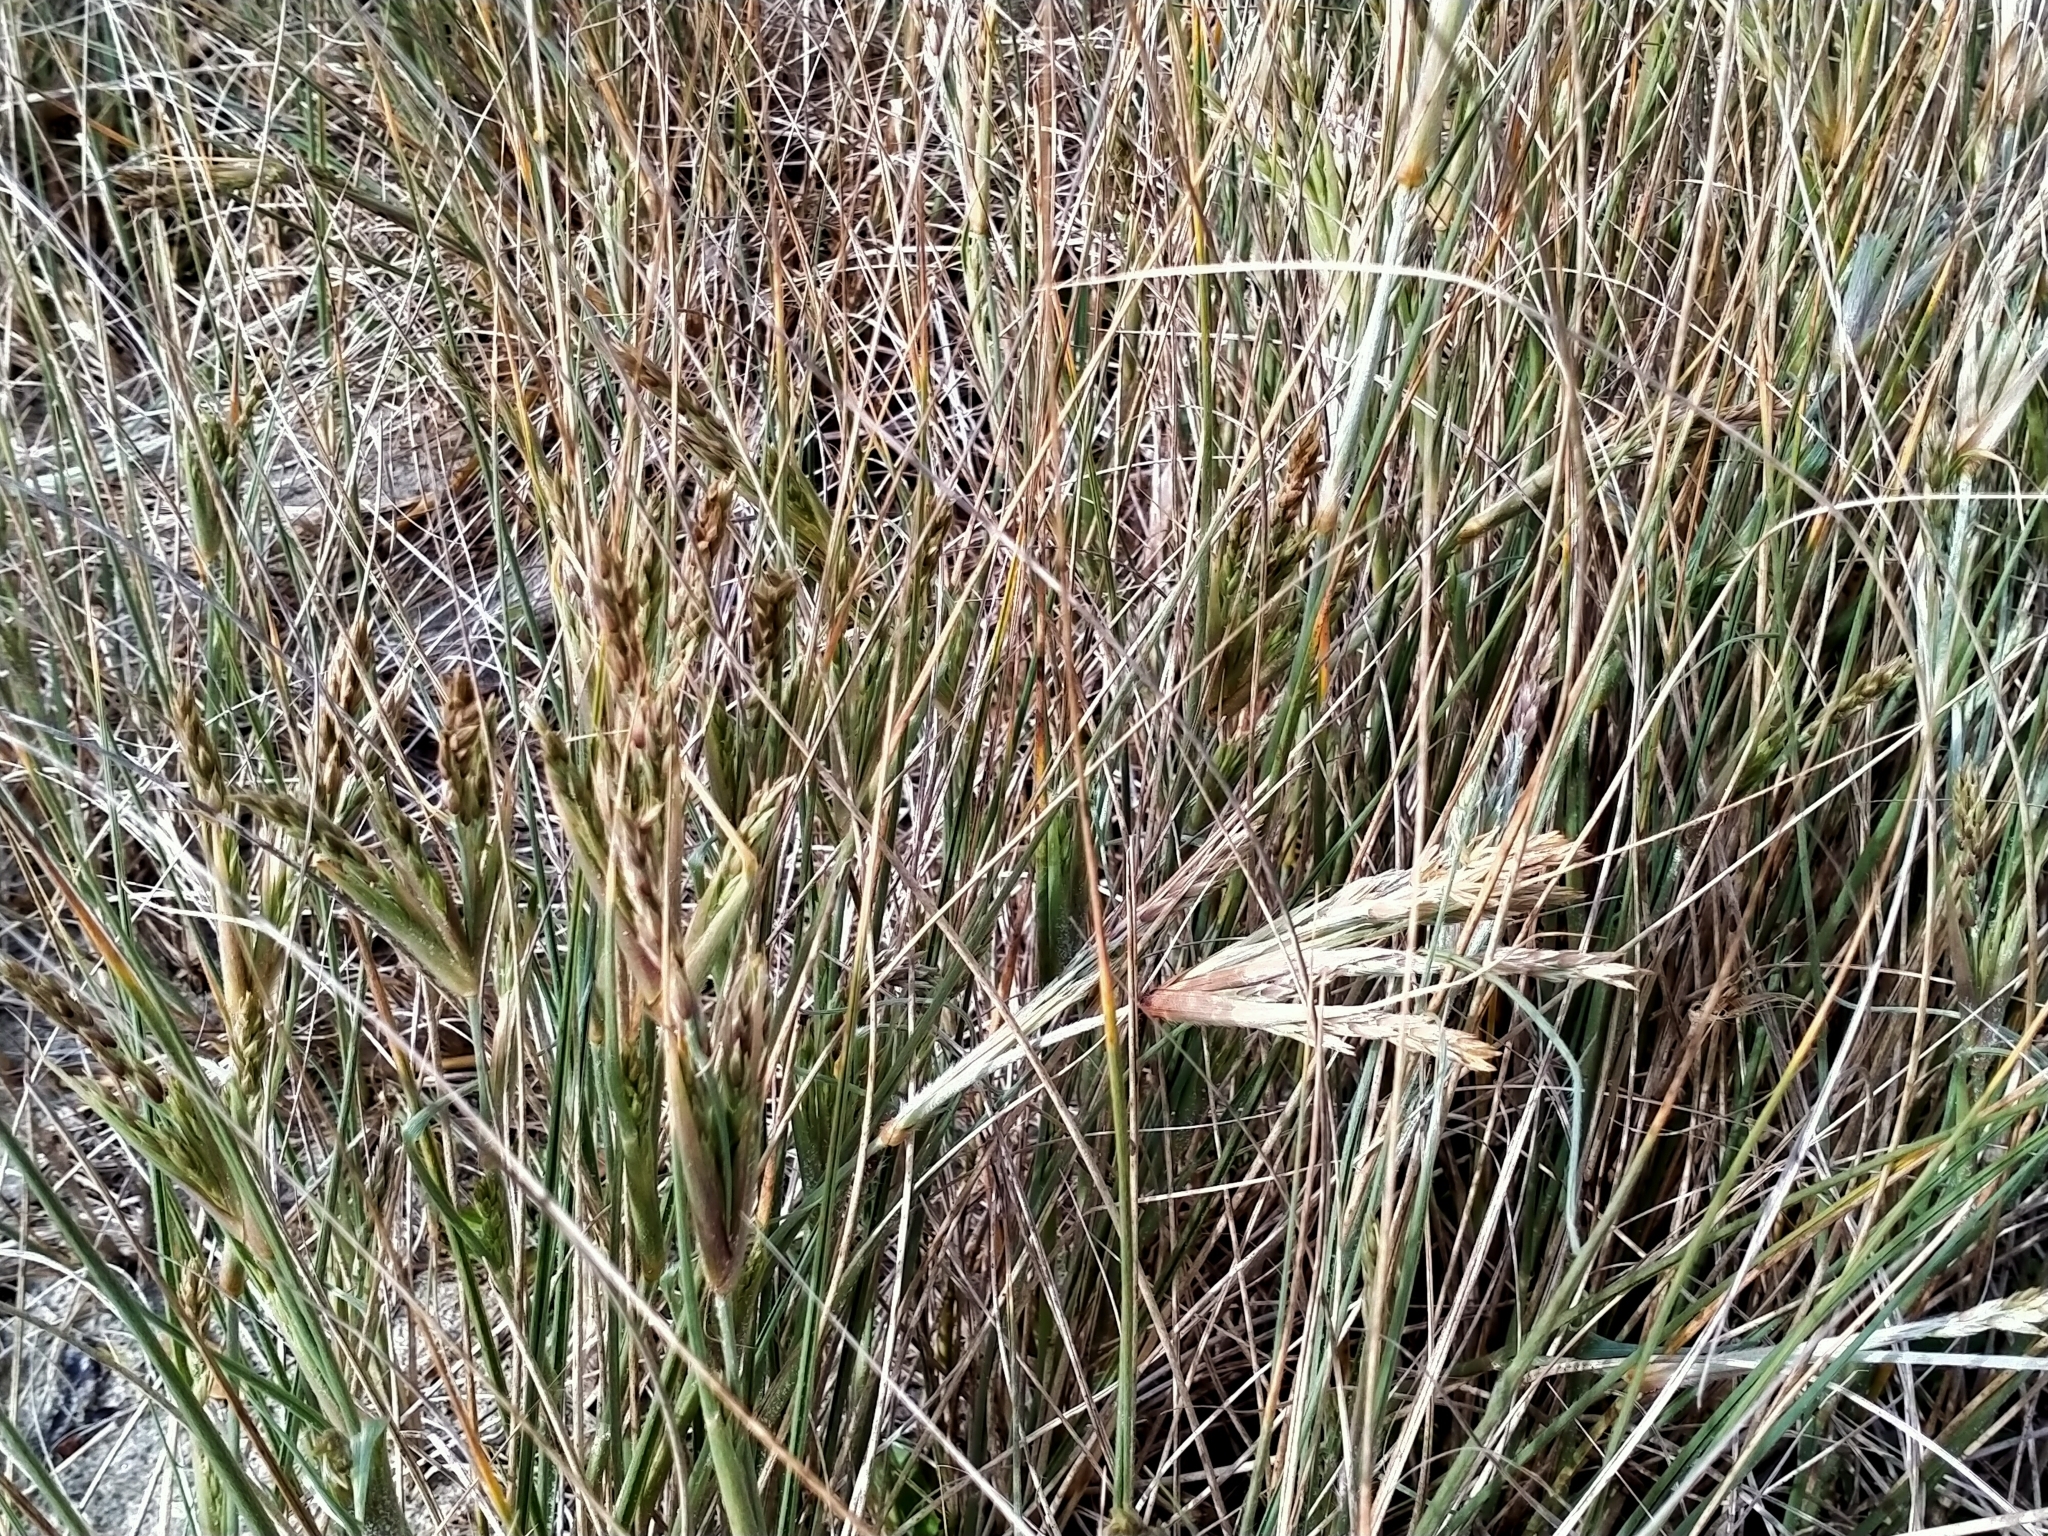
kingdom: Plantae
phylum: Tracheophyta
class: Liliopsida
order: Poales
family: Poaceae
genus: Spinifex
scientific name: Spinifex sericeus
